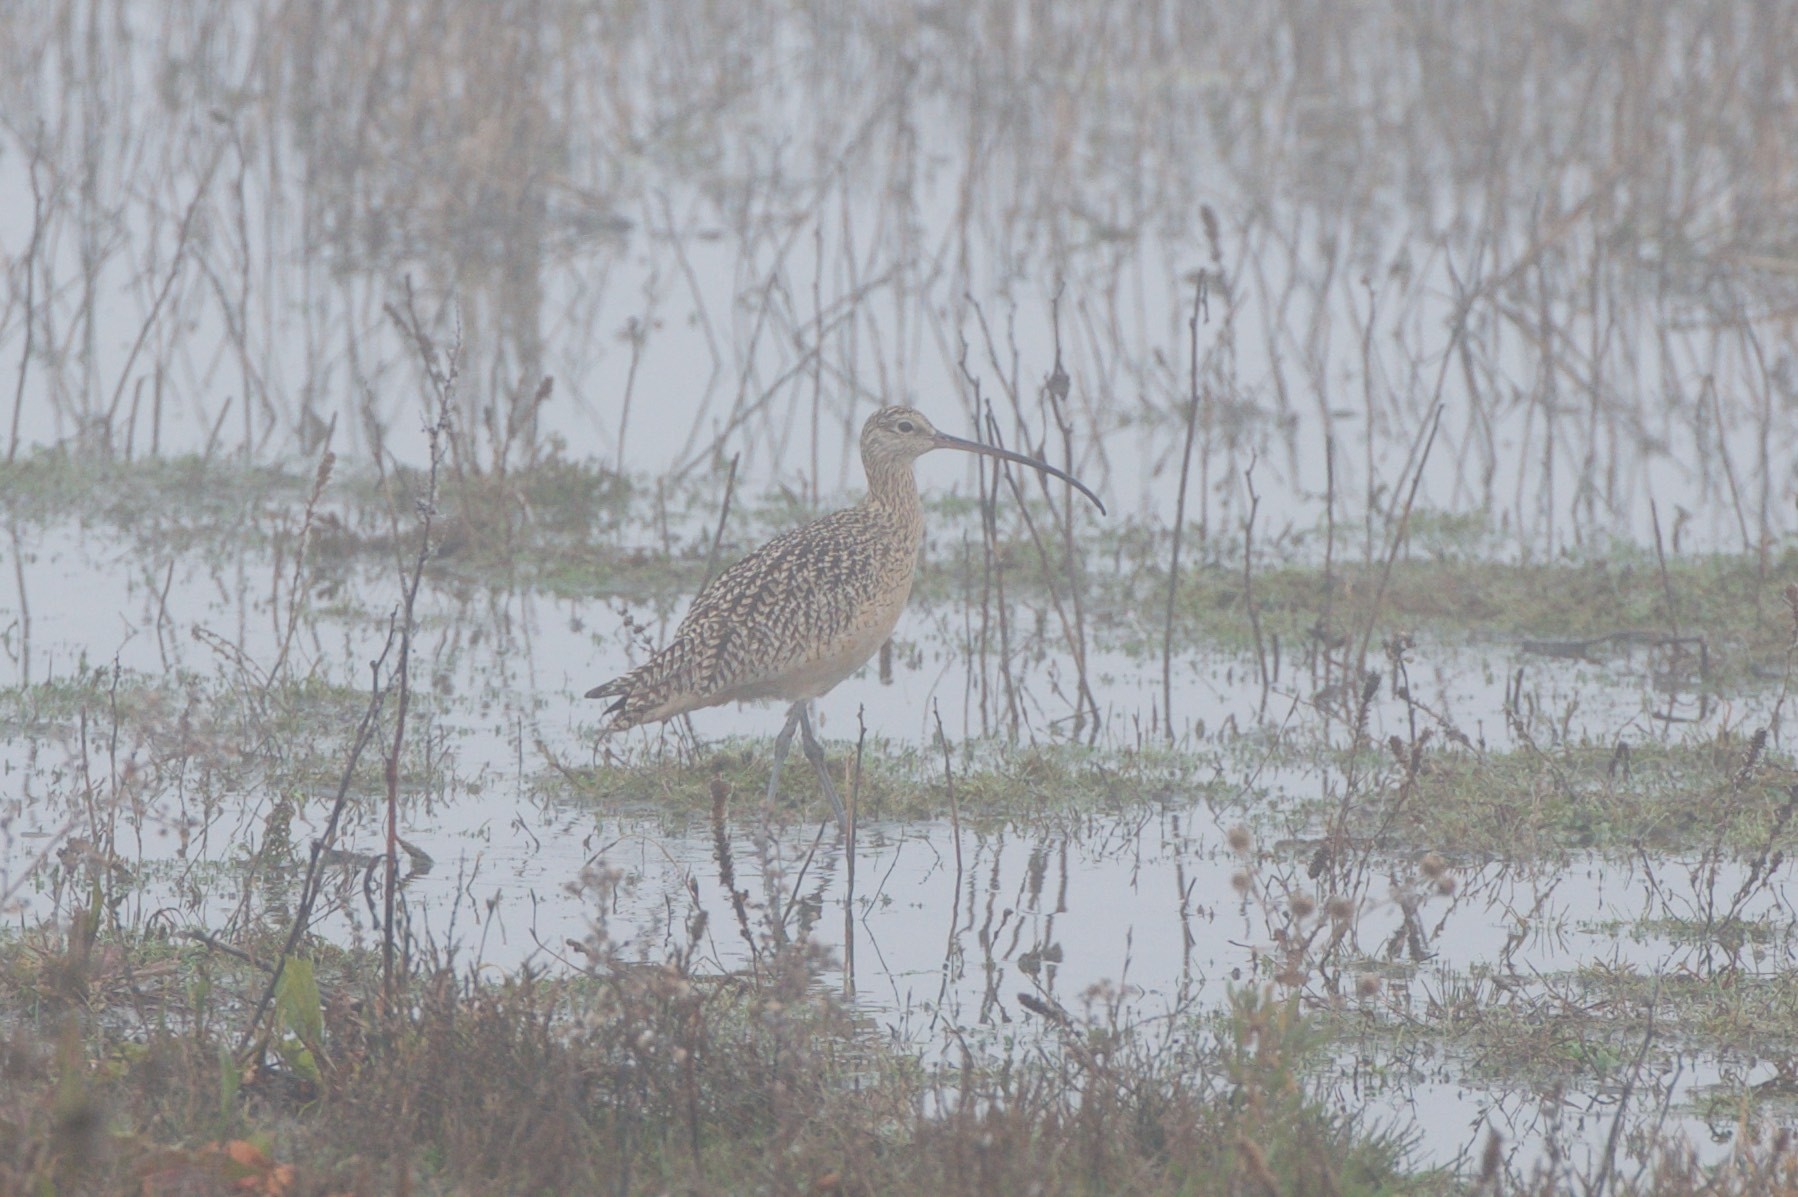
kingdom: Animalia
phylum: Chordata
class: Aves
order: Charadriiformes
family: Scolopacidae
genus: Numenius
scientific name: Numenius americanus
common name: Long-billed curlew
